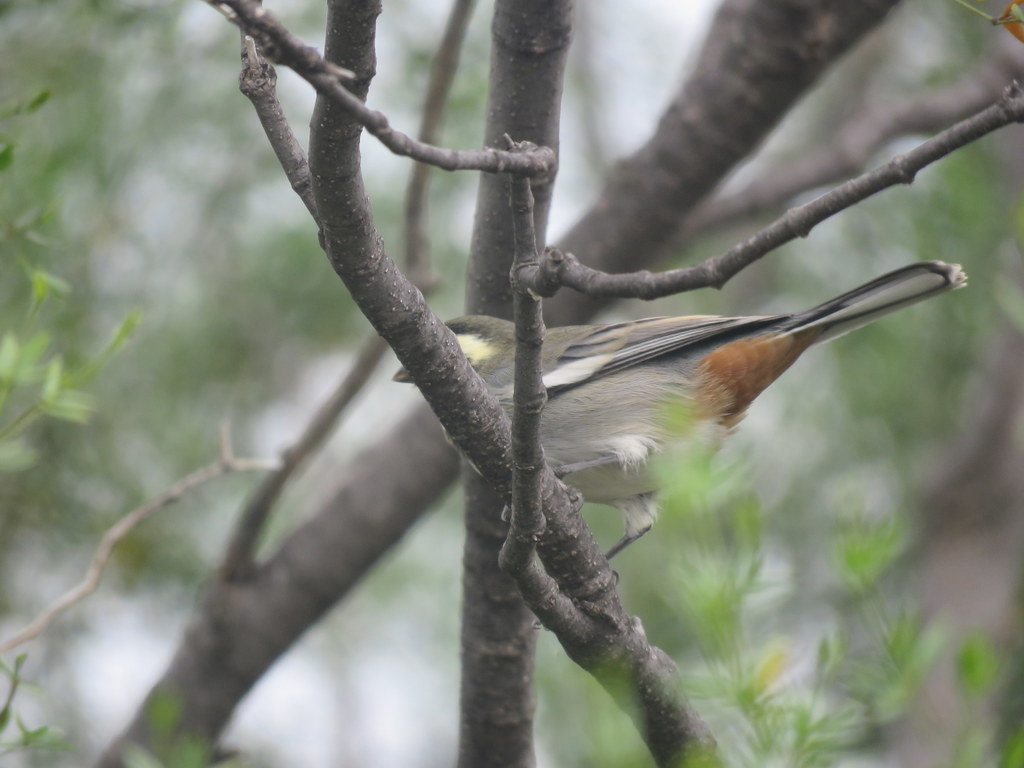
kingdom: Animalia
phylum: Chordata
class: Aves
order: Passeriformes
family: Thraupidae
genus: Microspingus
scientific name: Microspingus torquatus
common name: Ringed warbling-finch
